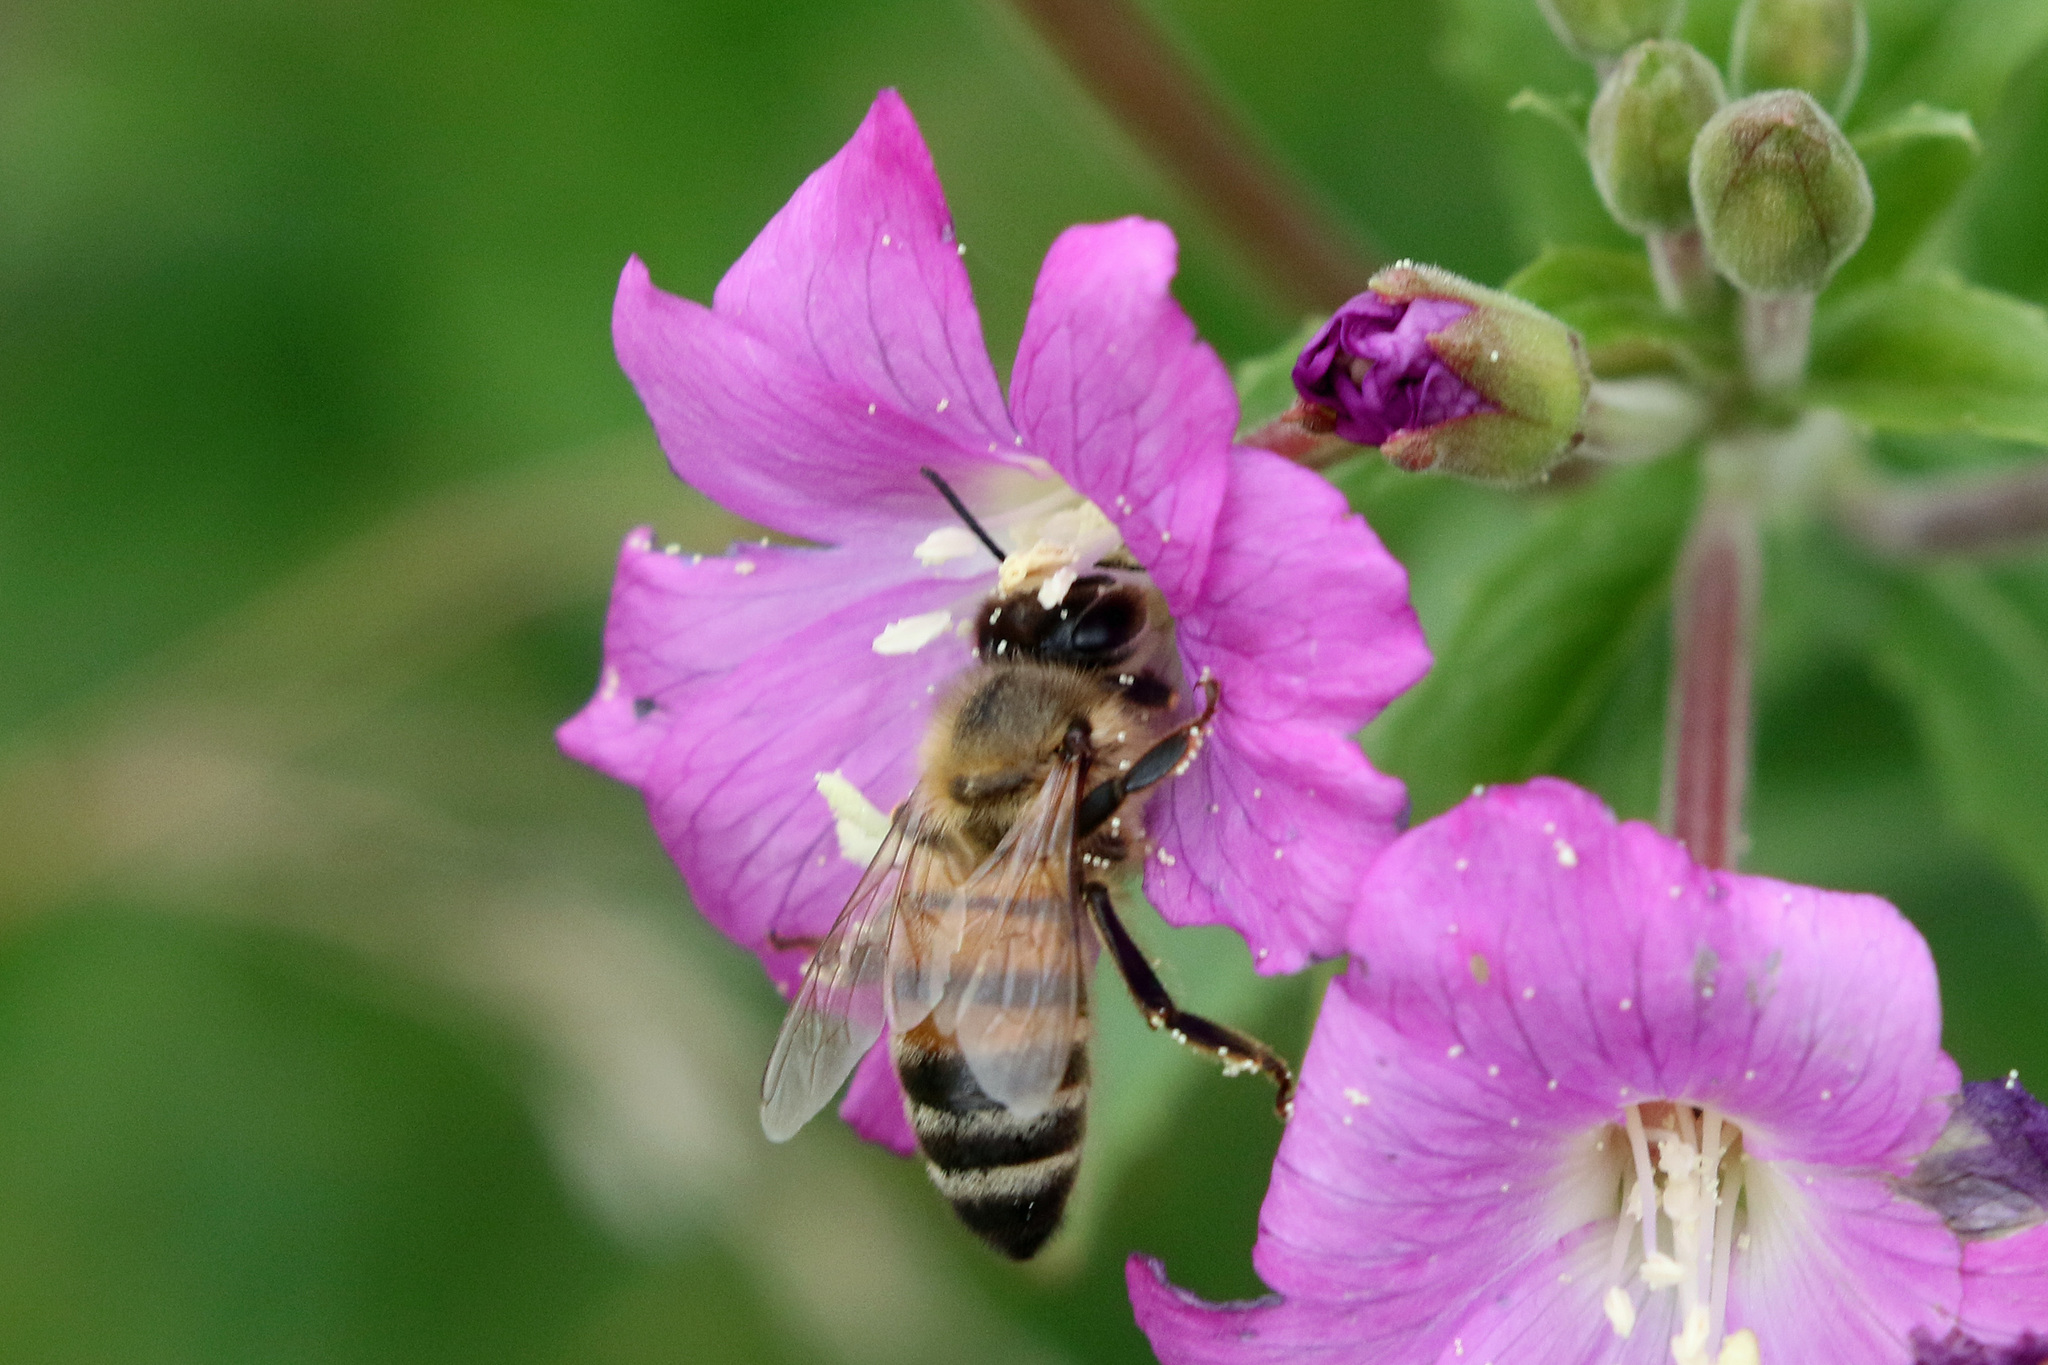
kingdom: Animalia
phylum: Arthropoda
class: Insecta
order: Hymenoptera
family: Apidae
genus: Apis
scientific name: Apis mellifera
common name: Honey bee
